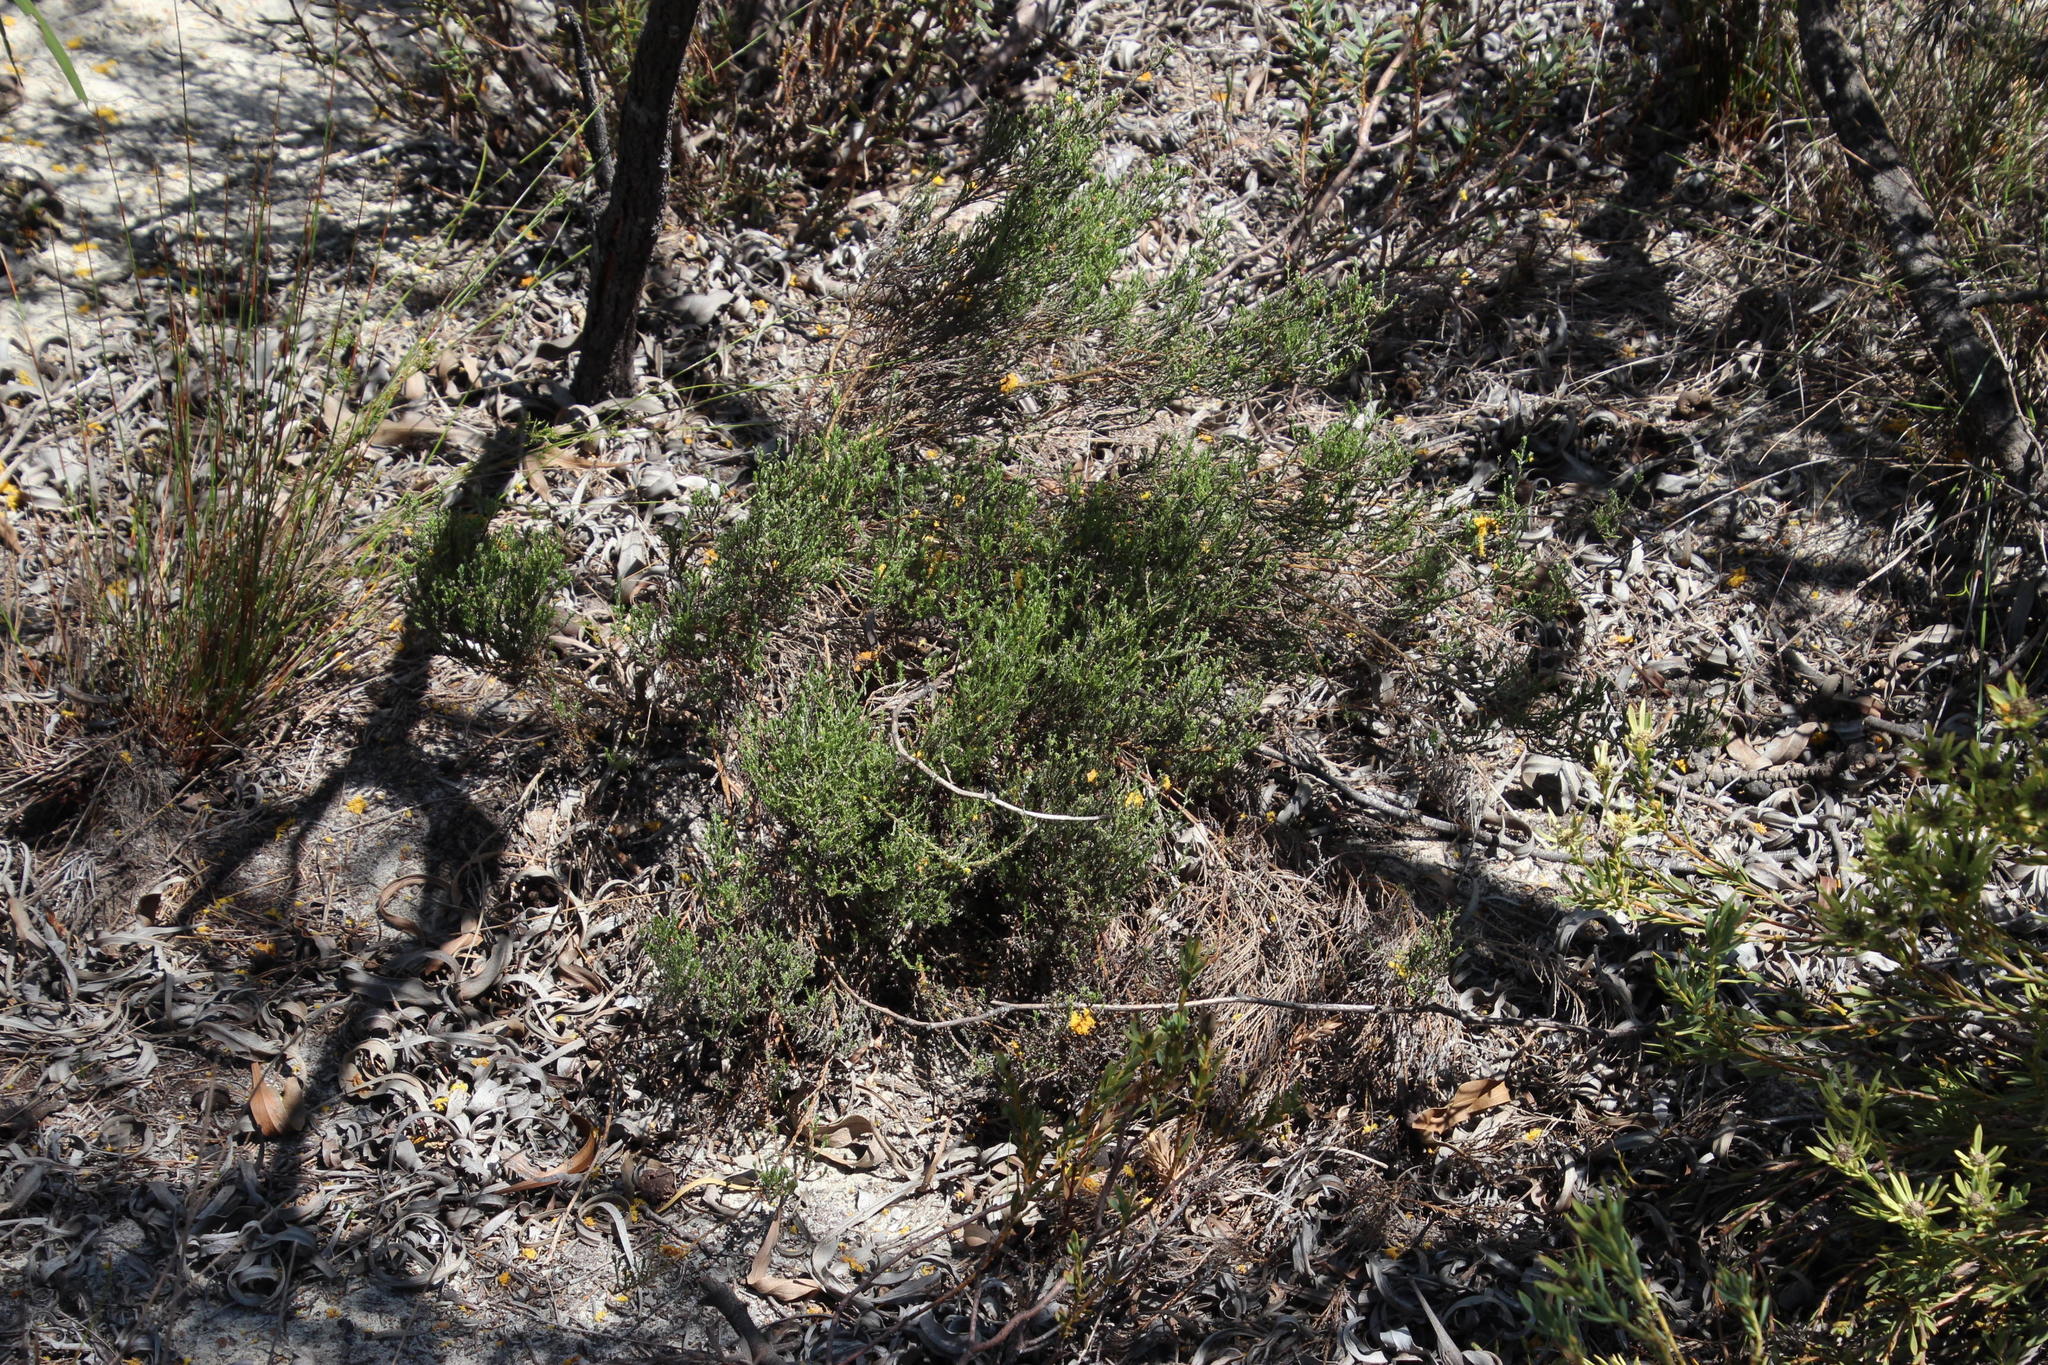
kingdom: Plantae
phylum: Tracheophyta
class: Magnoliopsida
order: Rosales
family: Rosaceae
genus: Cliffortia
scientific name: Cliffortia juniperina
